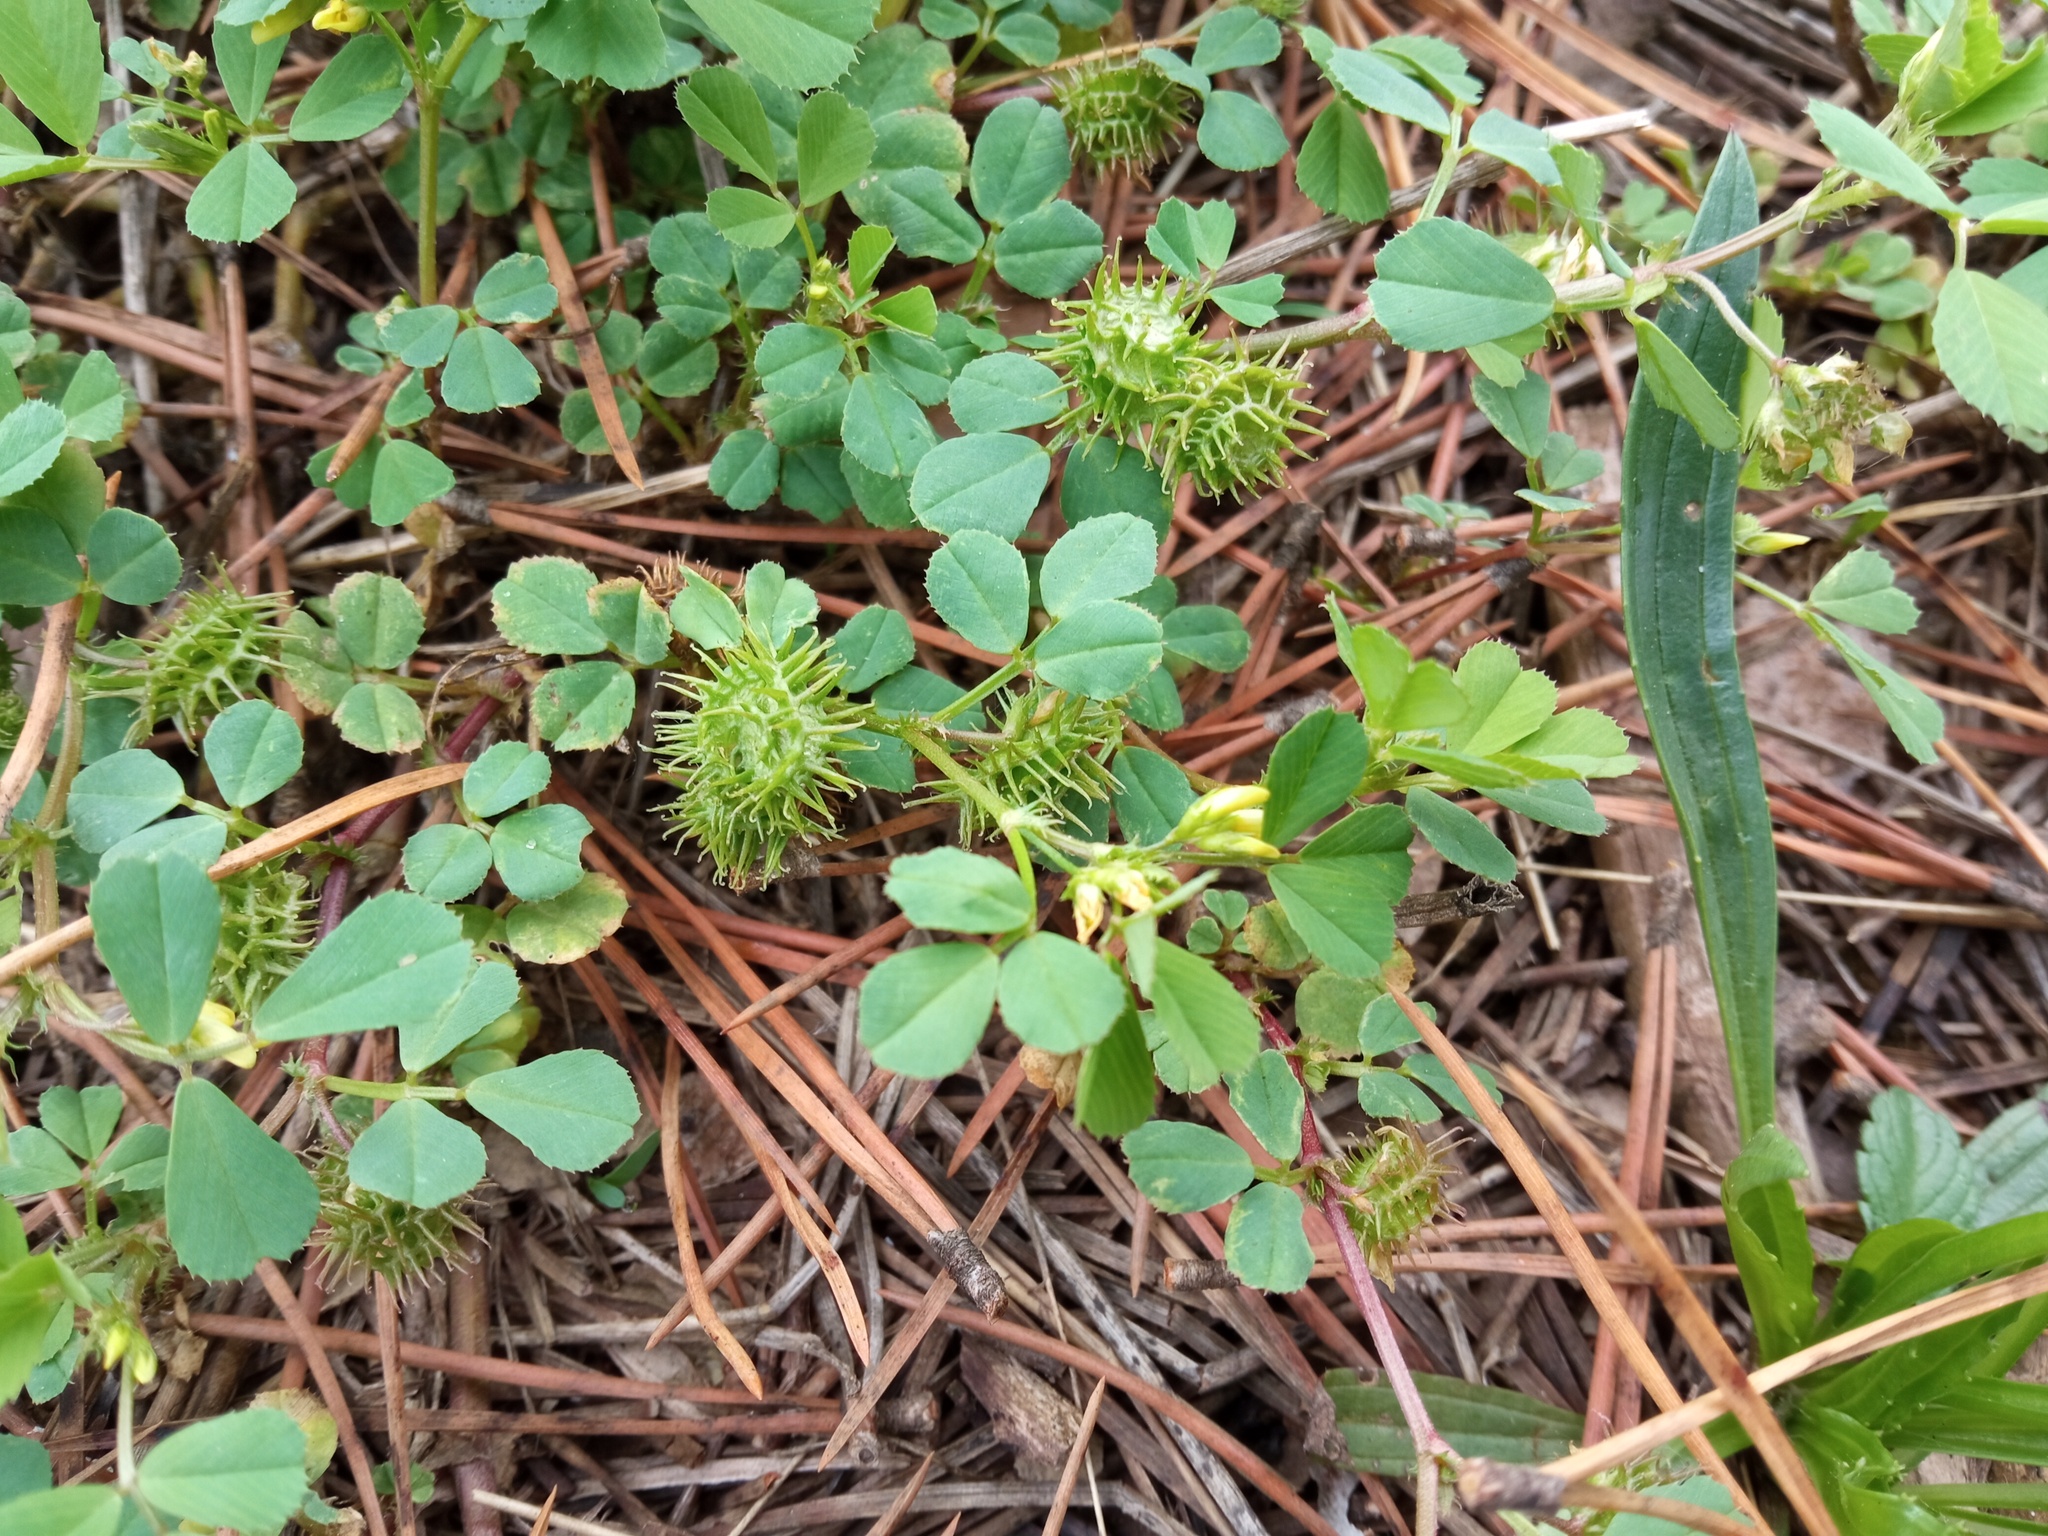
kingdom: Plantae
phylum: Tracheophyta
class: Magnoliopsida
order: Fabales
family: Fabaceae
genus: Medicago
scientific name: Medicago polymorpha
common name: Burclover
